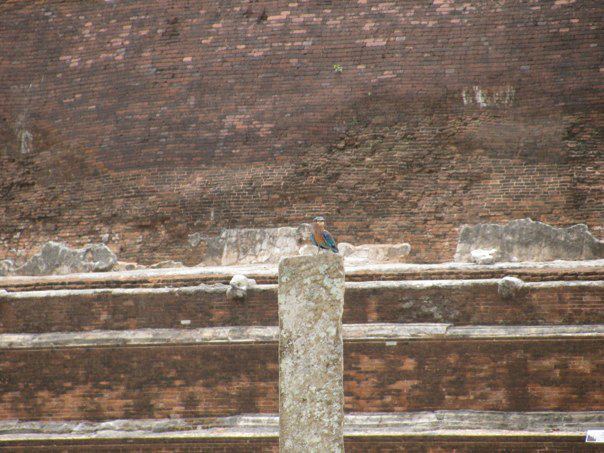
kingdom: Animalia
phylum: Chordata
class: Aves
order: Coraciiformes
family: Coraciidae
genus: Coracias
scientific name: Coracias benghalensis
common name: Indian roller
